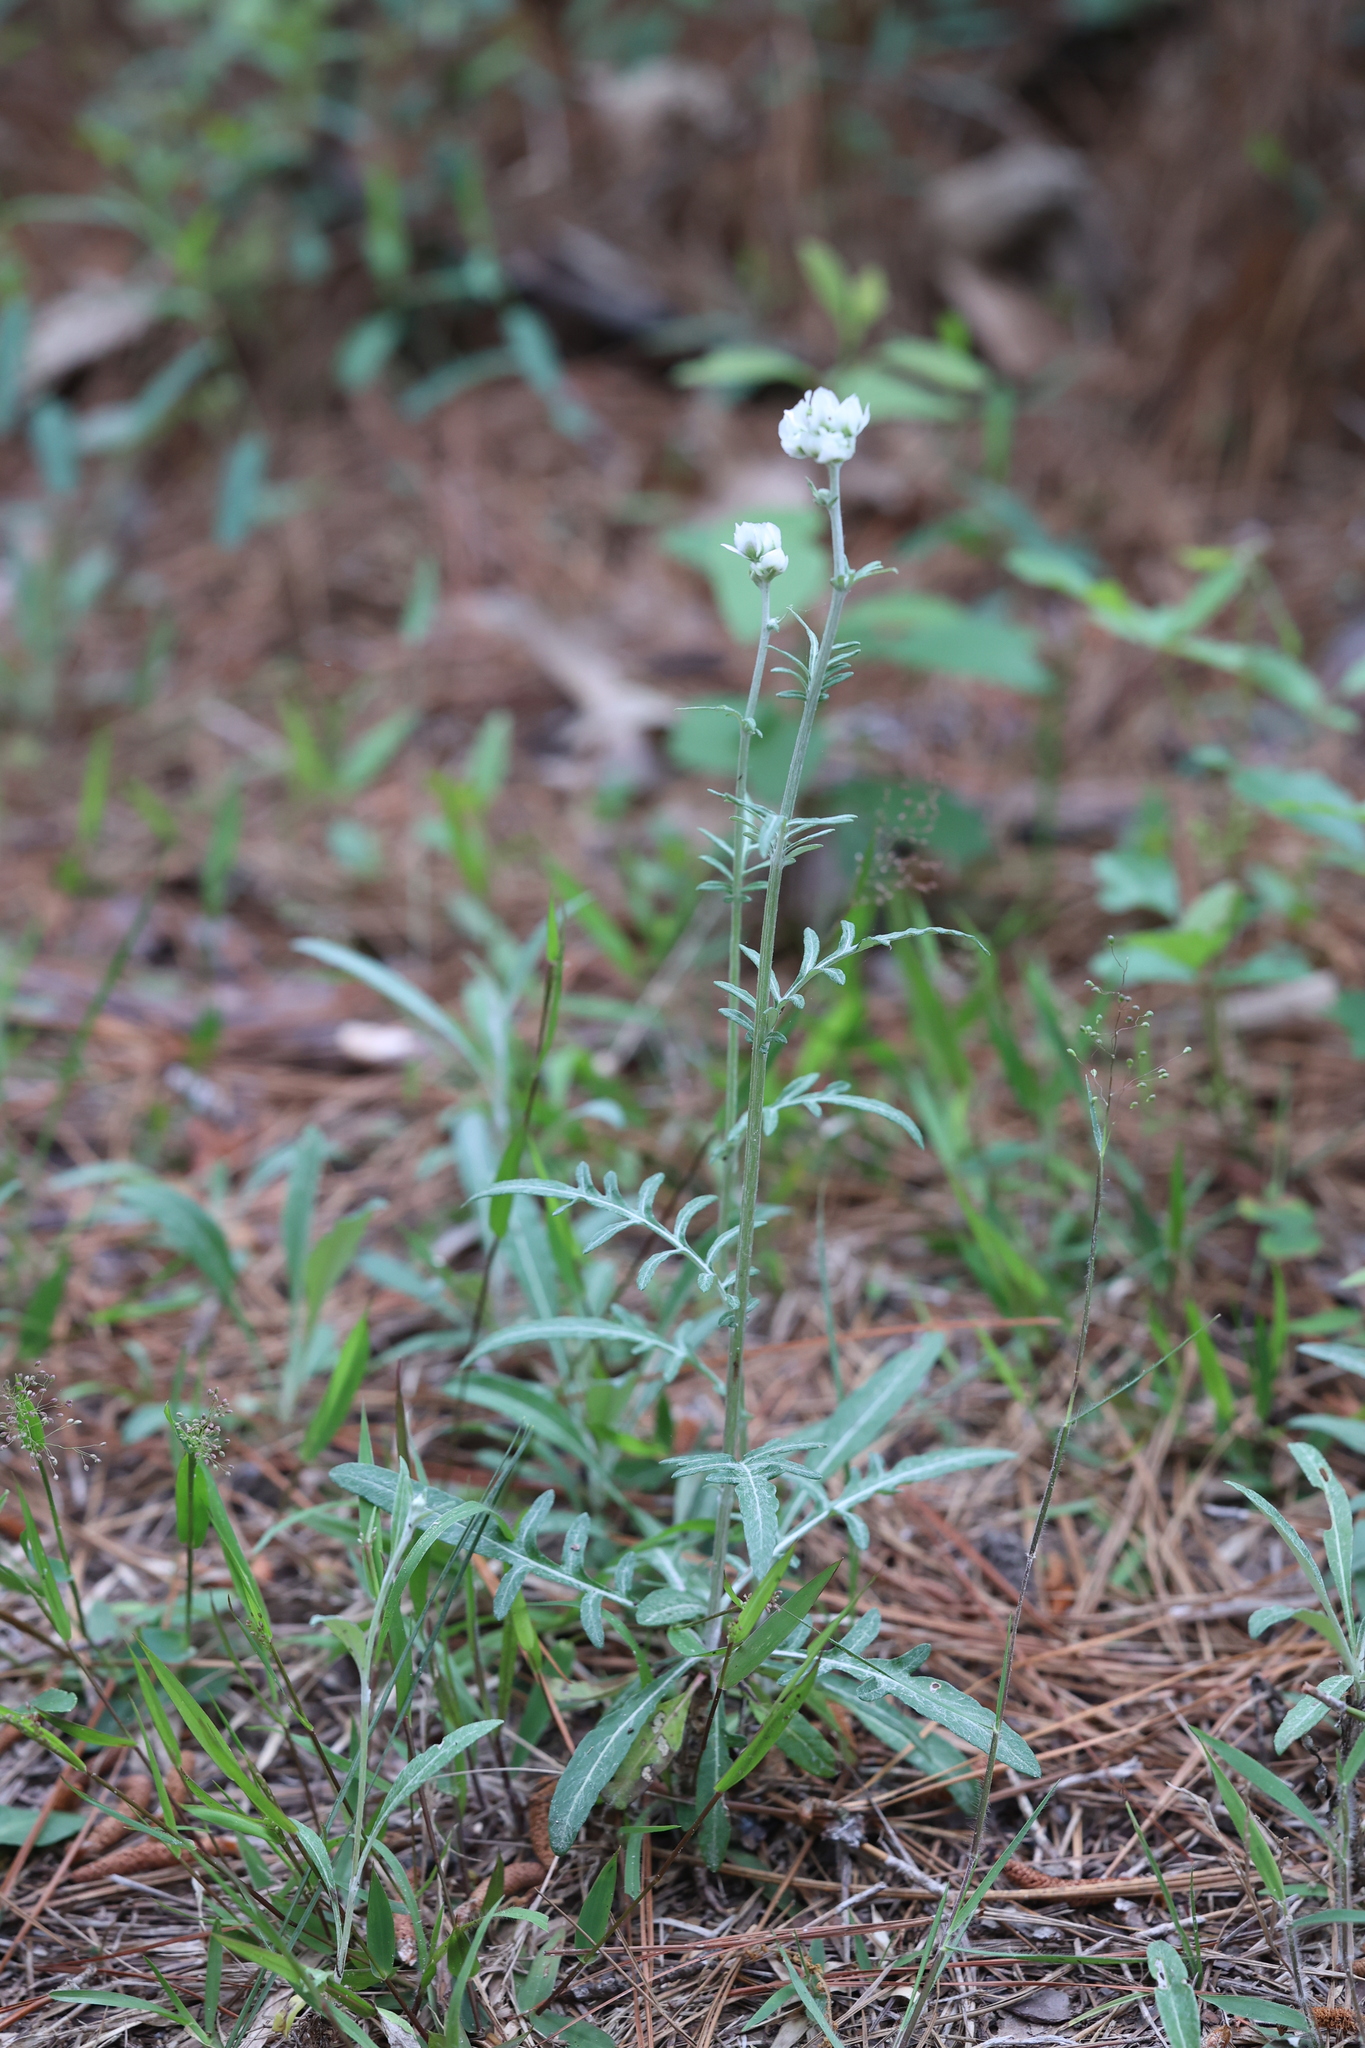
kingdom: Plantae
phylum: Tracheophyta
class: Magnoliopsida
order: Asterales
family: Asteraceae
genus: Hymenopappus
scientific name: Hymenopappus artemisiifolius
